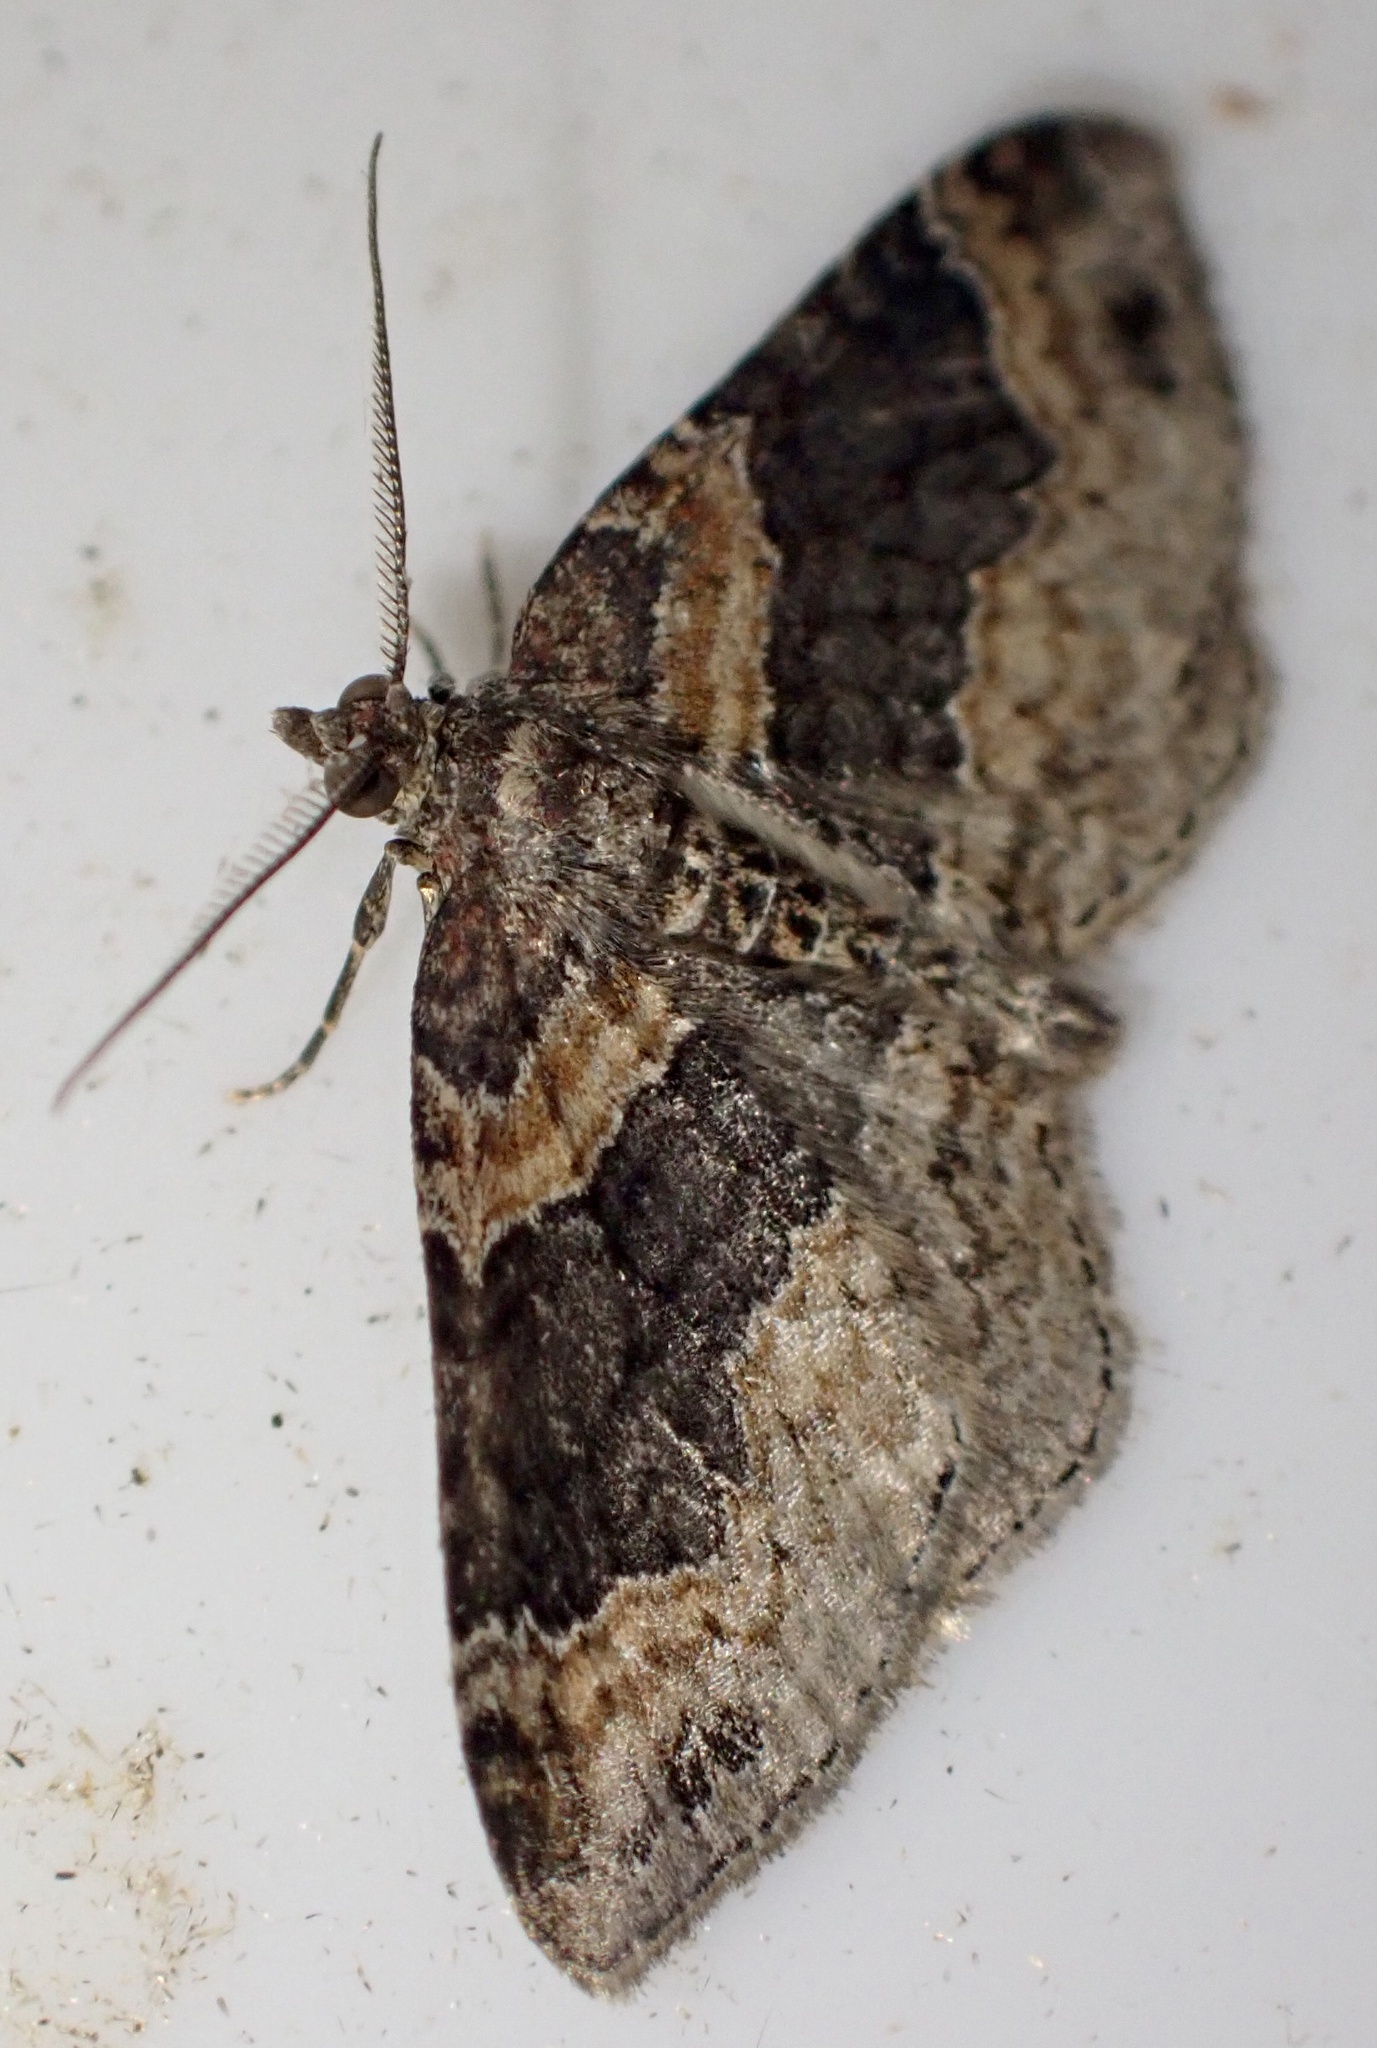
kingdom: Animalia
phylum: Arthropoda
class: Insecta
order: Lepidoptera
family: Geometridae
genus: Xanthorhoe
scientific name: Xanthorhoe ferrugata
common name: Dark-barred twin-spot carpet
